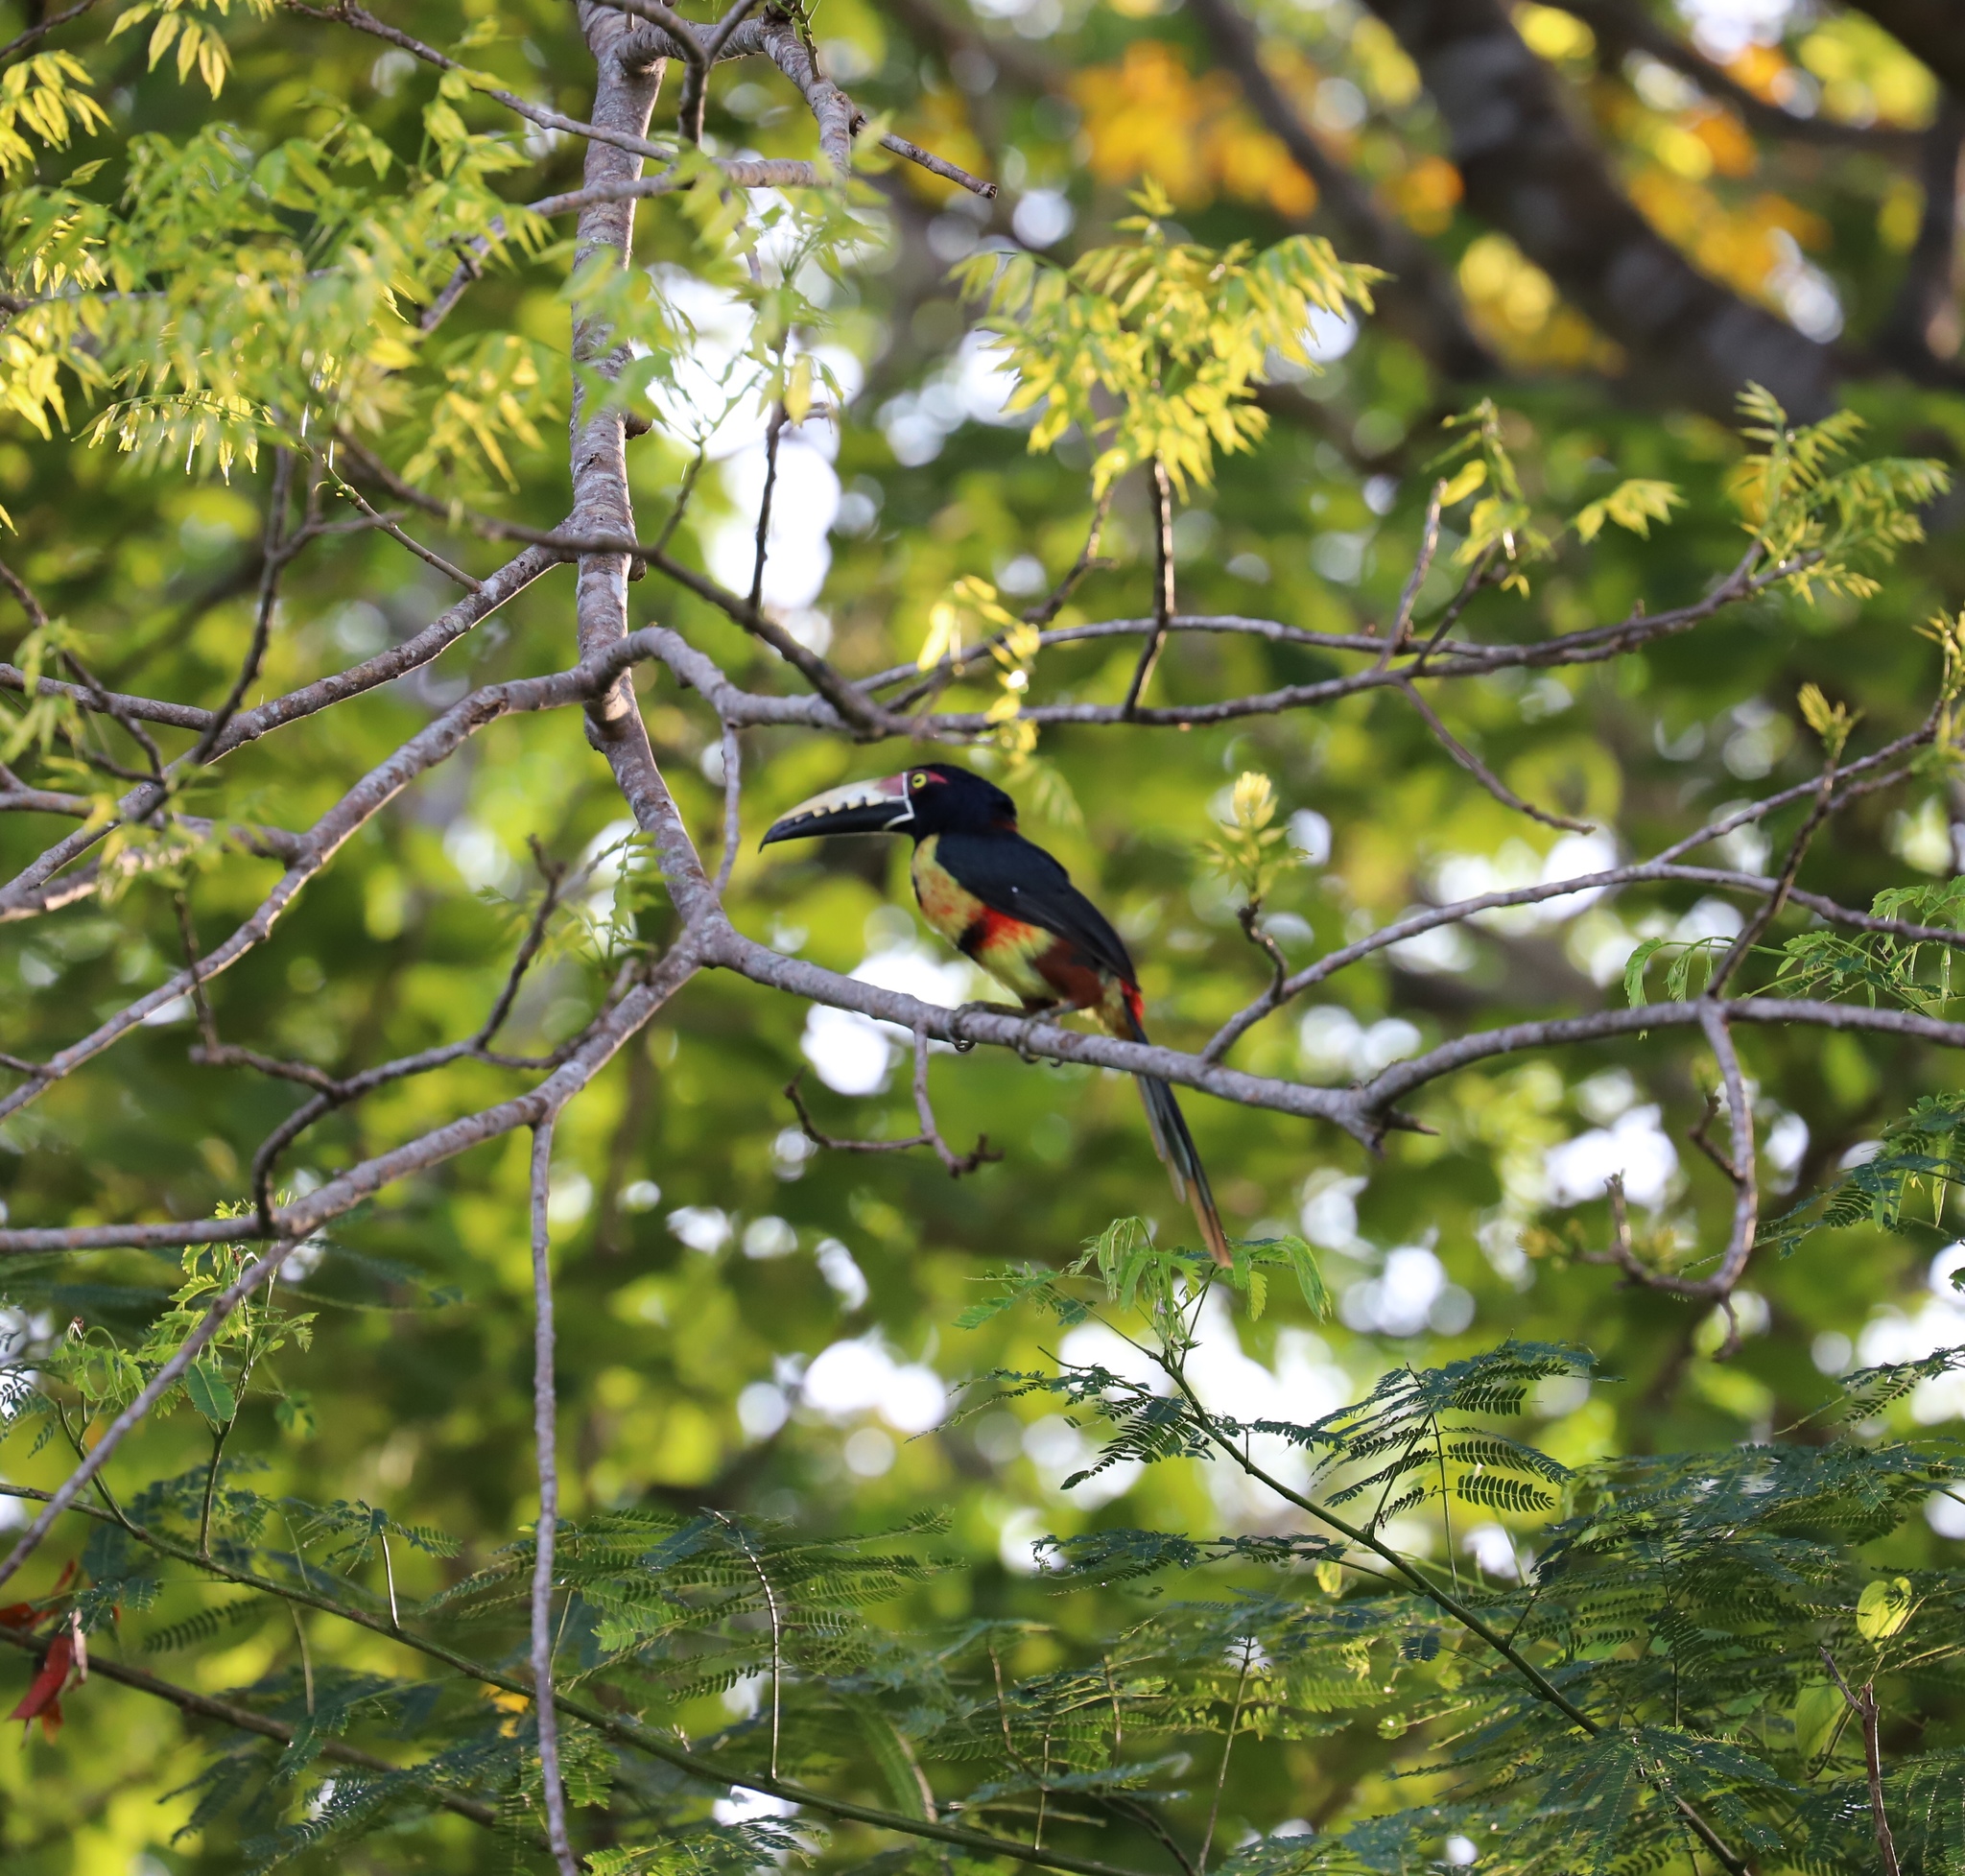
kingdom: Animalia
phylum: Chordata
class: Aves
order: Piciformes
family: Ramphastidae
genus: Pteroglossus
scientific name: Pteroglossus torquatus
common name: Collared aracari
